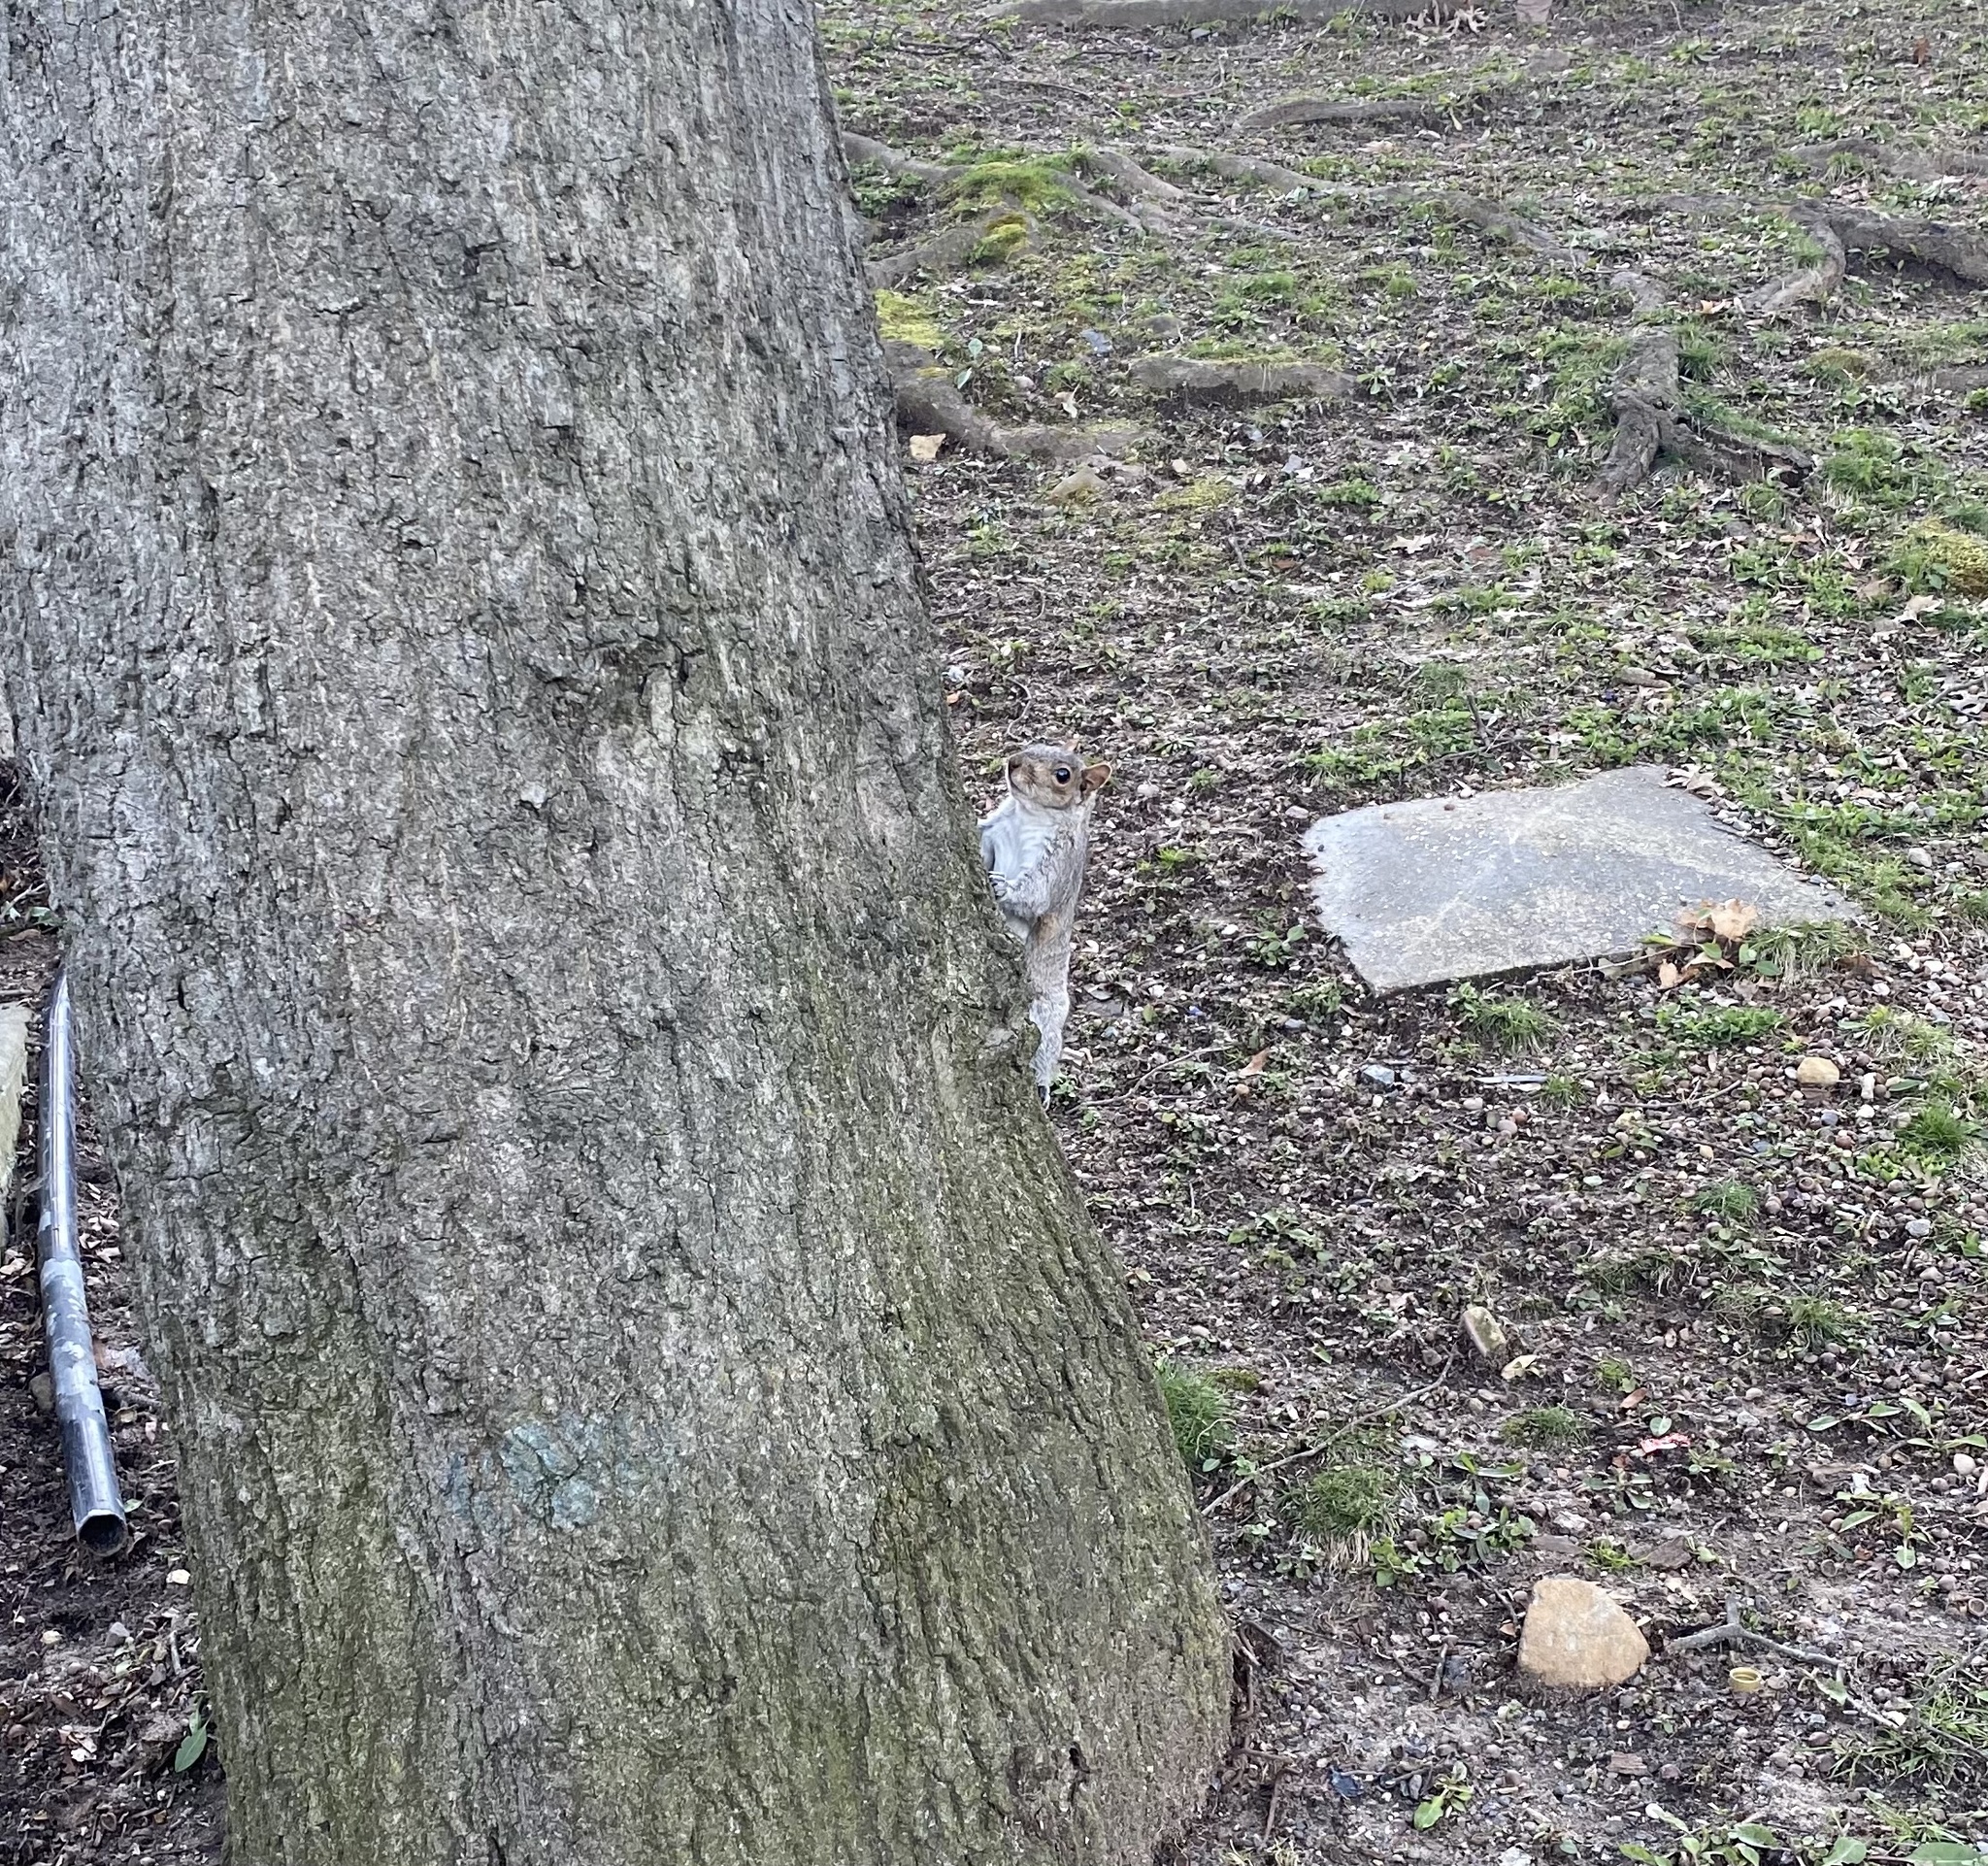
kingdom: Animalia
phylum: Chordata
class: Mammalia
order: Rodentia
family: Sciuridae
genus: Sciurus
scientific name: Sciurus carolinensis
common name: Eastern gray squirrel
